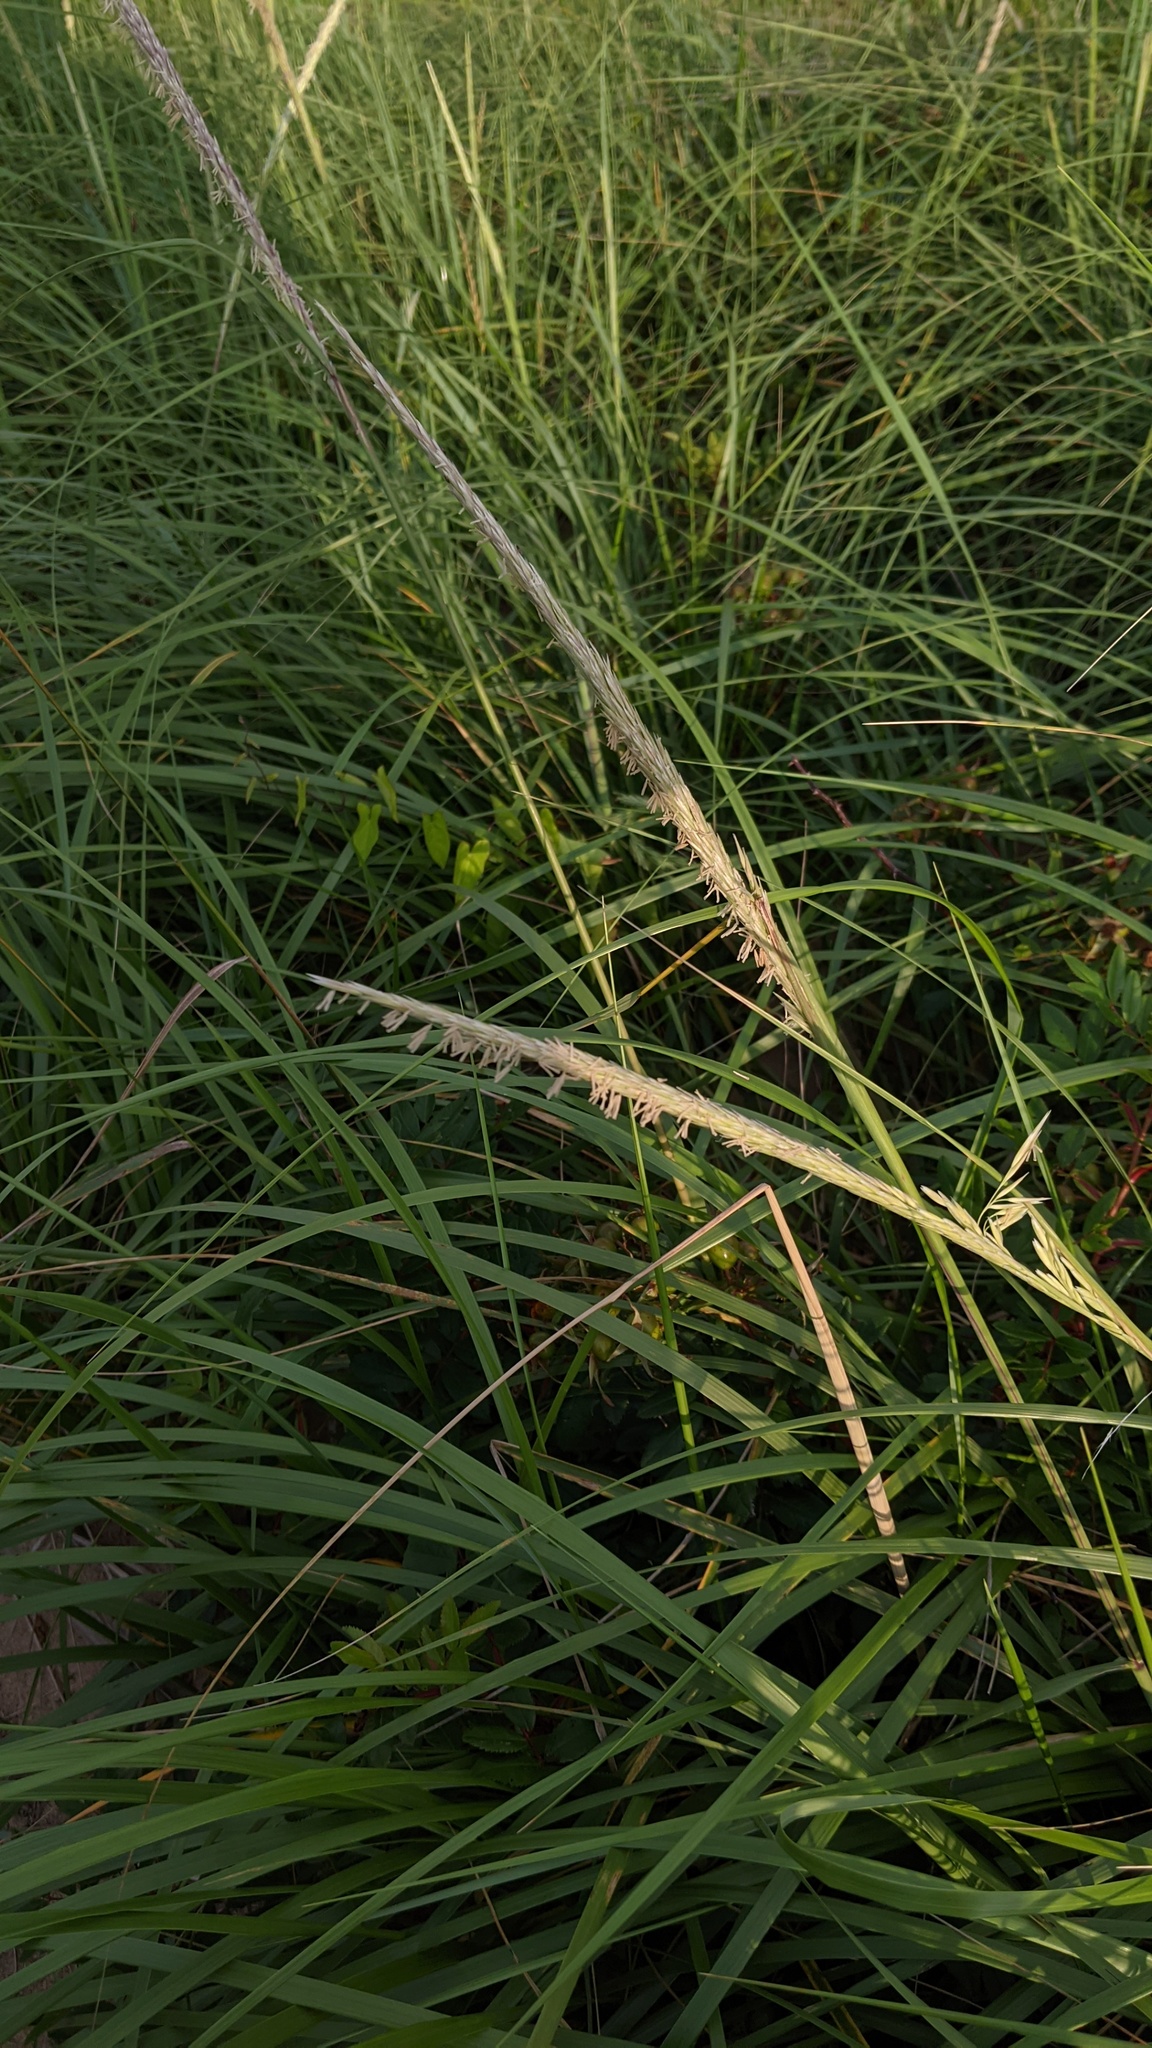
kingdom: Plantae
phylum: Tracheophyta
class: Liliopsida
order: Poales
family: Poaceae
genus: Sporobolus
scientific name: Sporobolus alterniflorus
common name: Atlantic cordgrass
